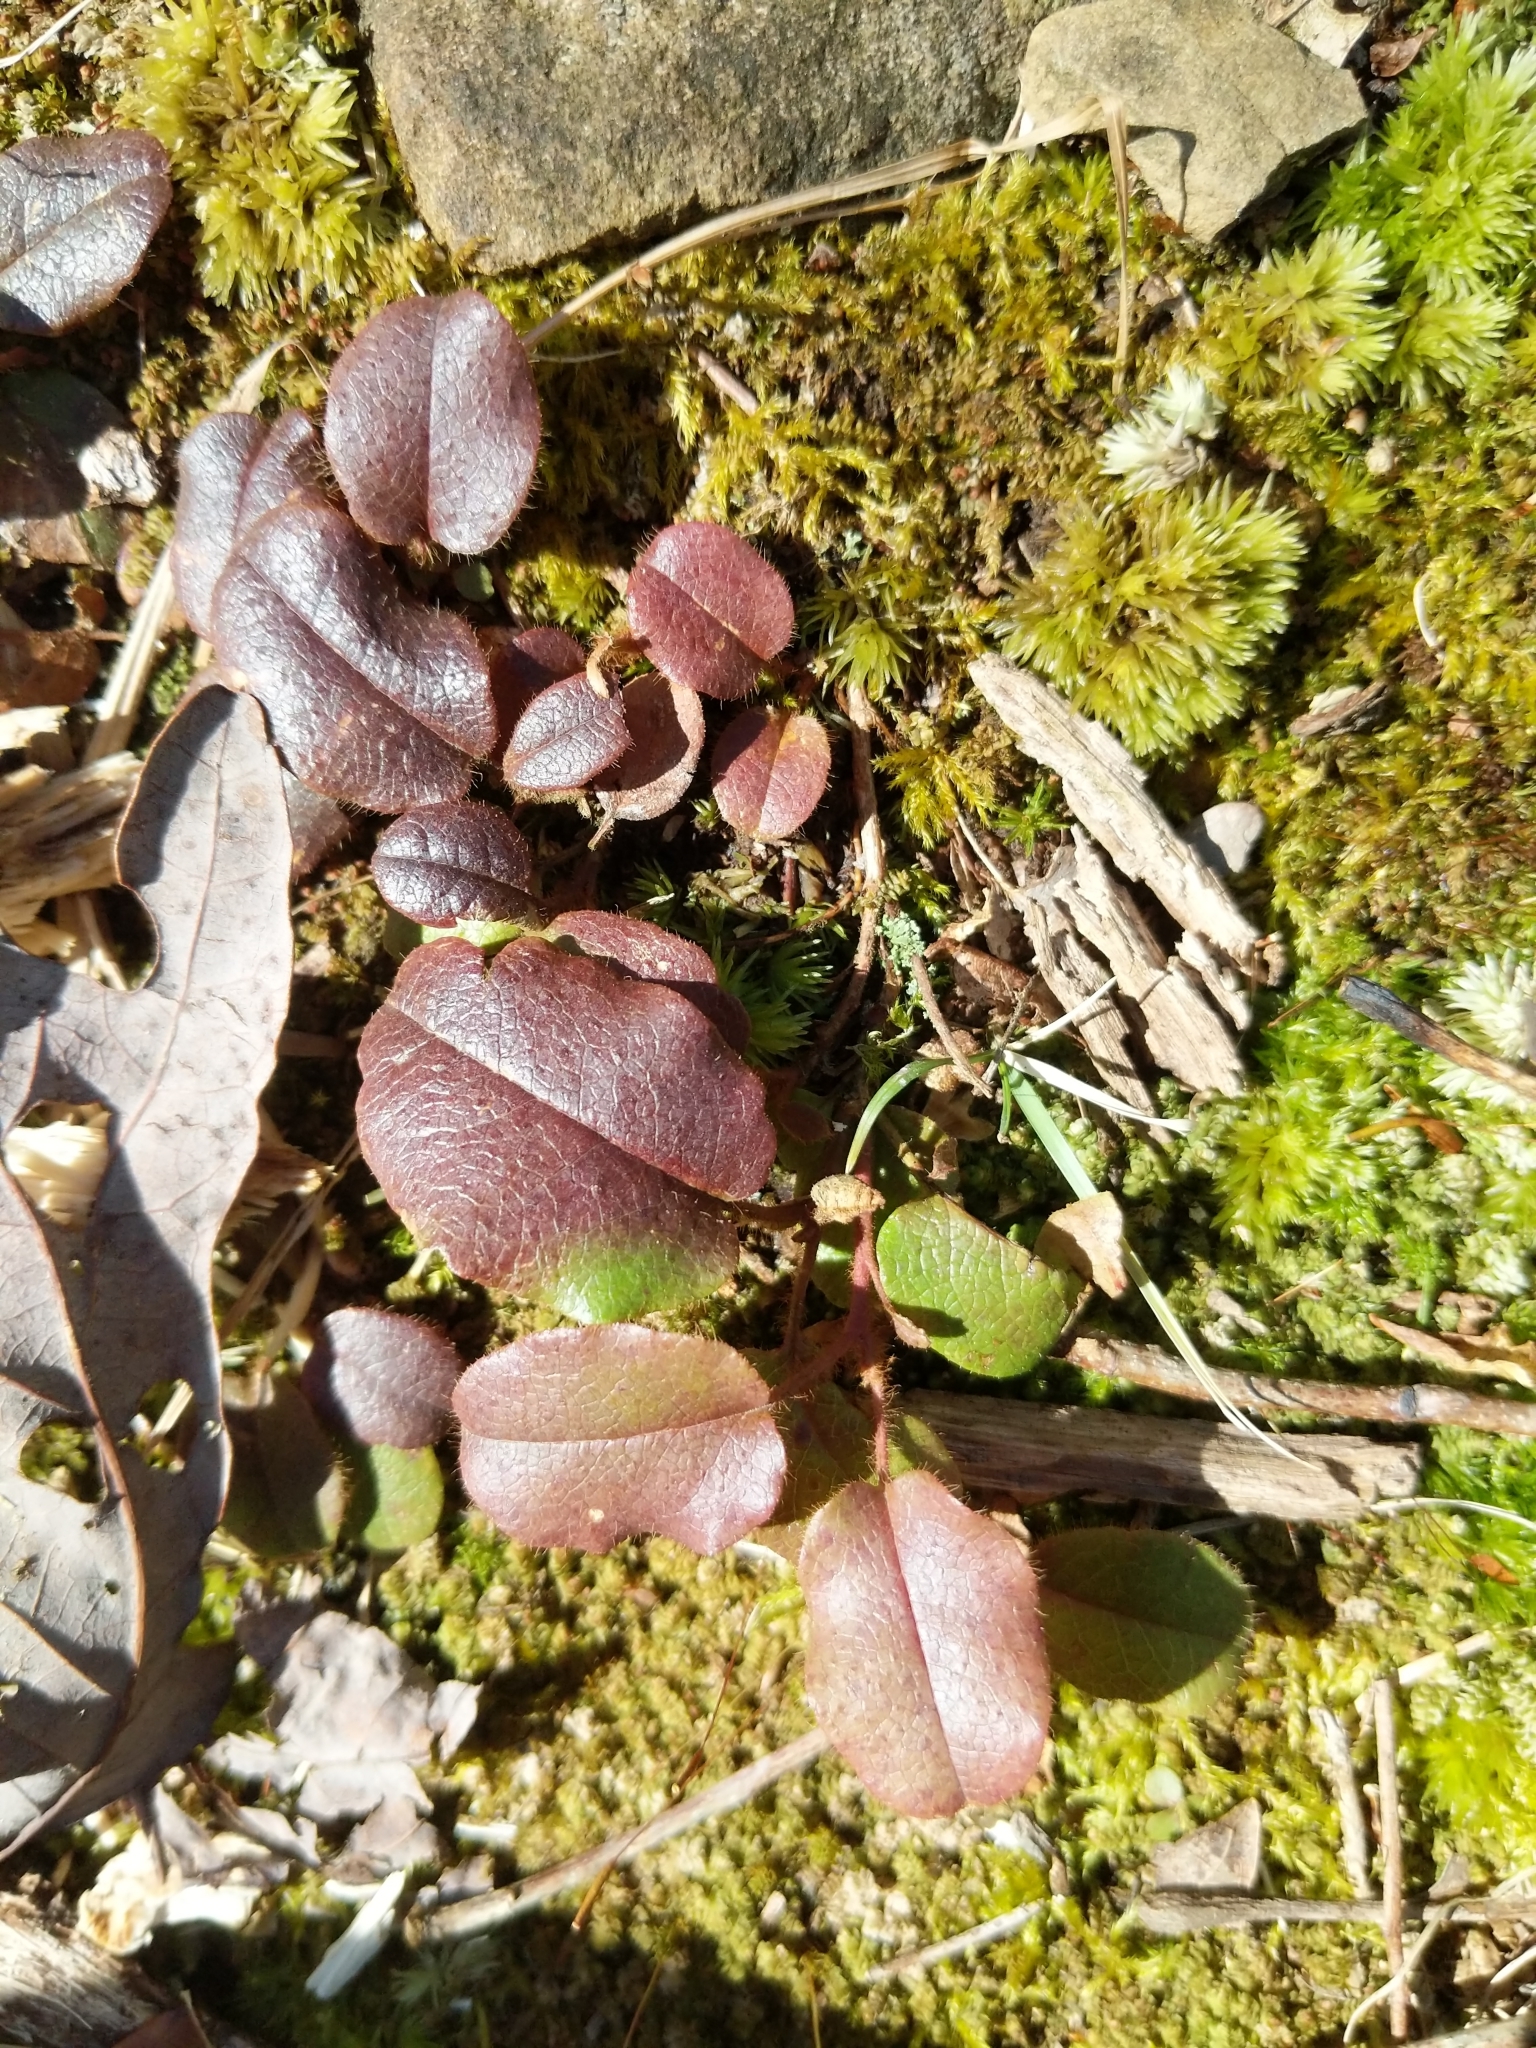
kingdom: Plantae
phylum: Tracheophyta
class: Magnoliopsida
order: Ericales
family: Ericaceae
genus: Epigaea
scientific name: Epigaea repens
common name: Gravelroot
